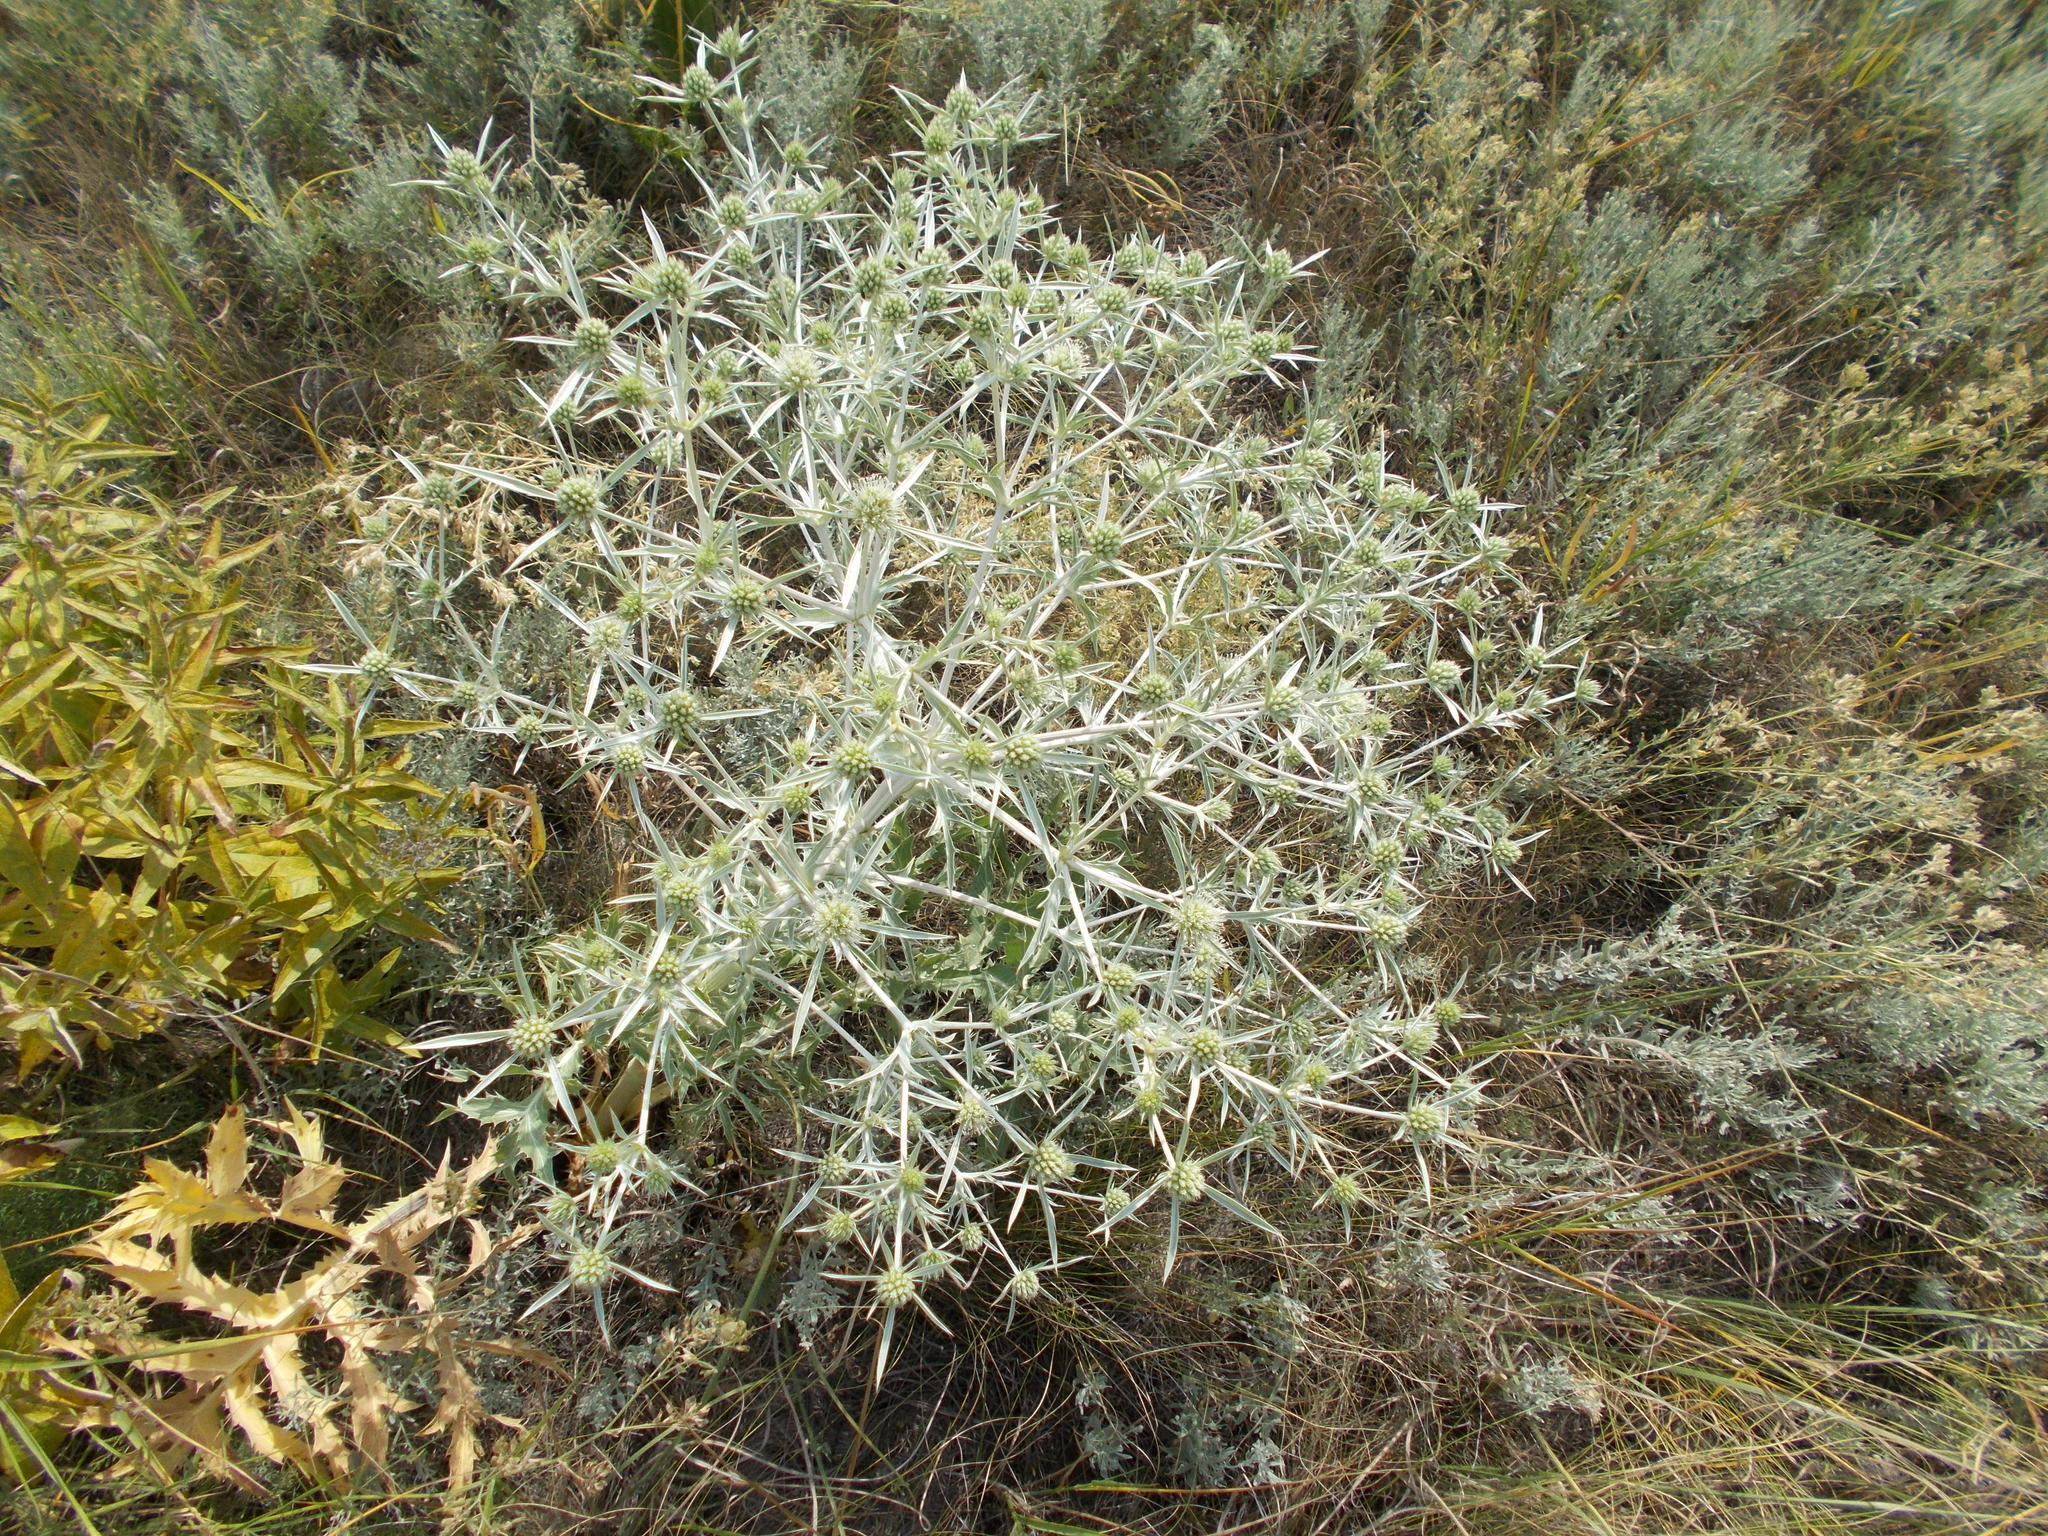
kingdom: Plantae
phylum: Tracheophyta
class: Magnoliopsida
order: Apiales
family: Apiaceae
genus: Eryngium
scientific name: Eryngium campestre
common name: Field eryngo
